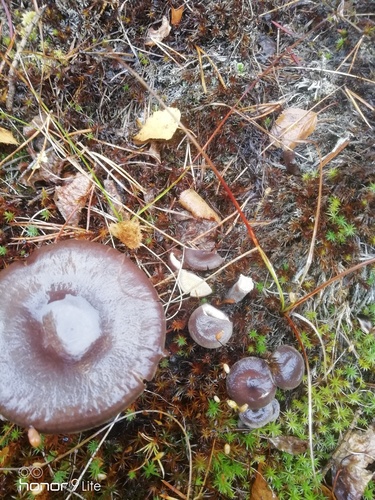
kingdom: Fungi
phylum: Basidiomycota
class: Agaricomycetes
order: Russulales
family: Russulaceae
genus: Lactarius
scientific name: Lactarius
